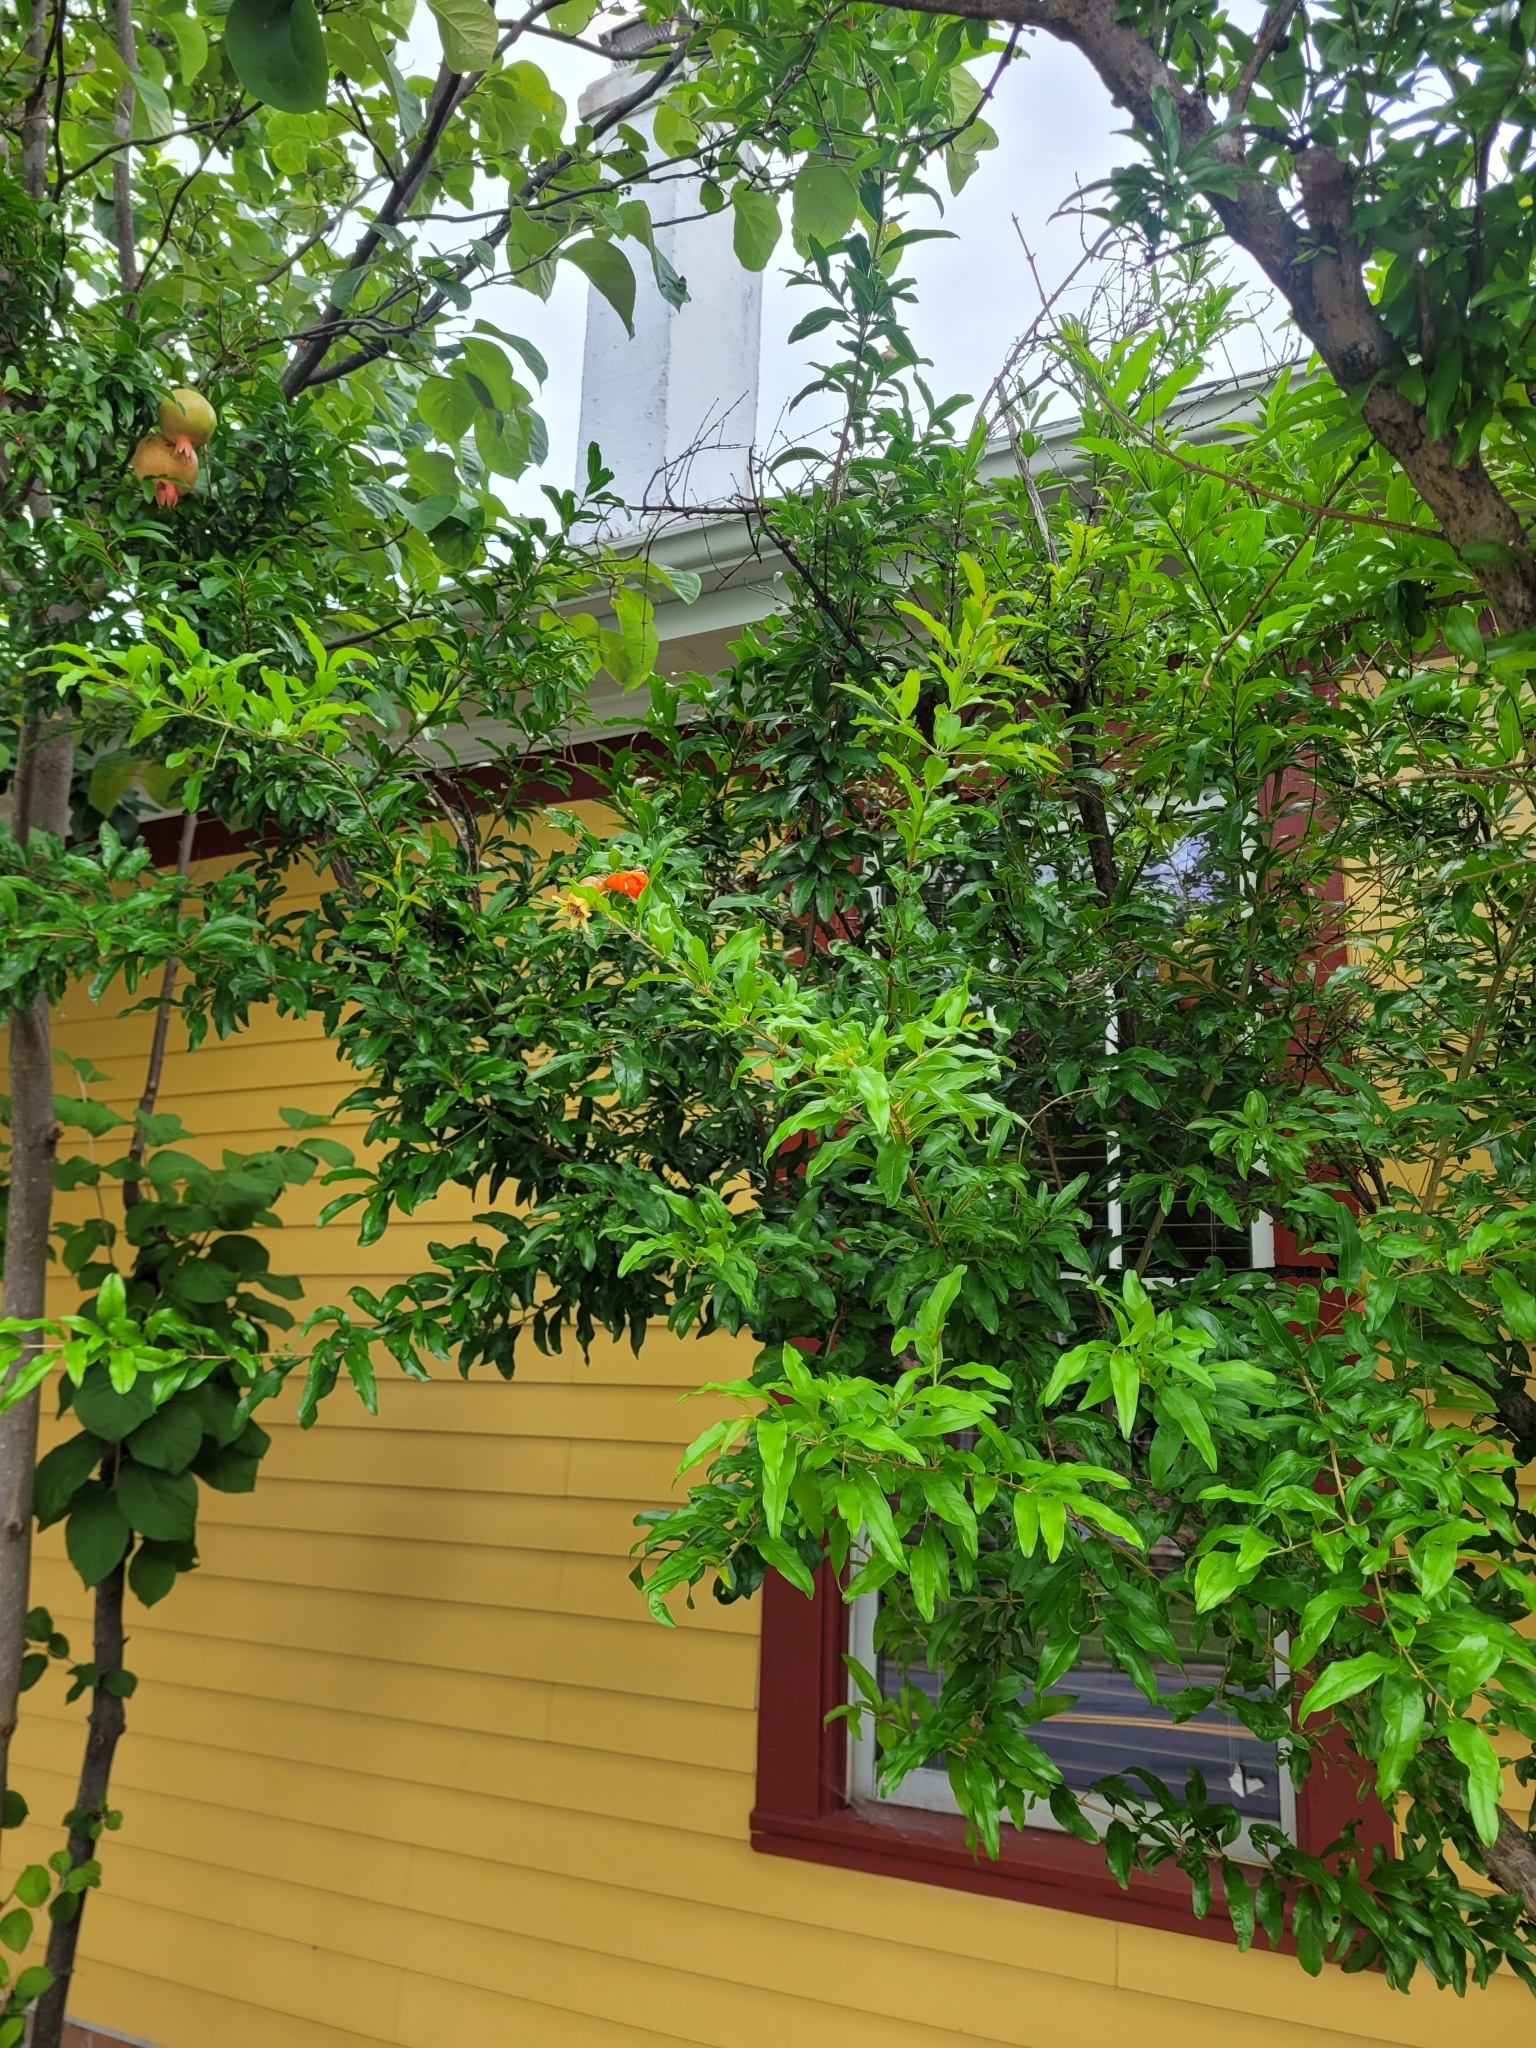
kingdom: Plantae
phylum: Tracheophyta
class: Magnoliopsida
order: Myrtales
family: Lythraceae
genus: Punica
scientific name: Punica granatum
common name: Pomegranate
